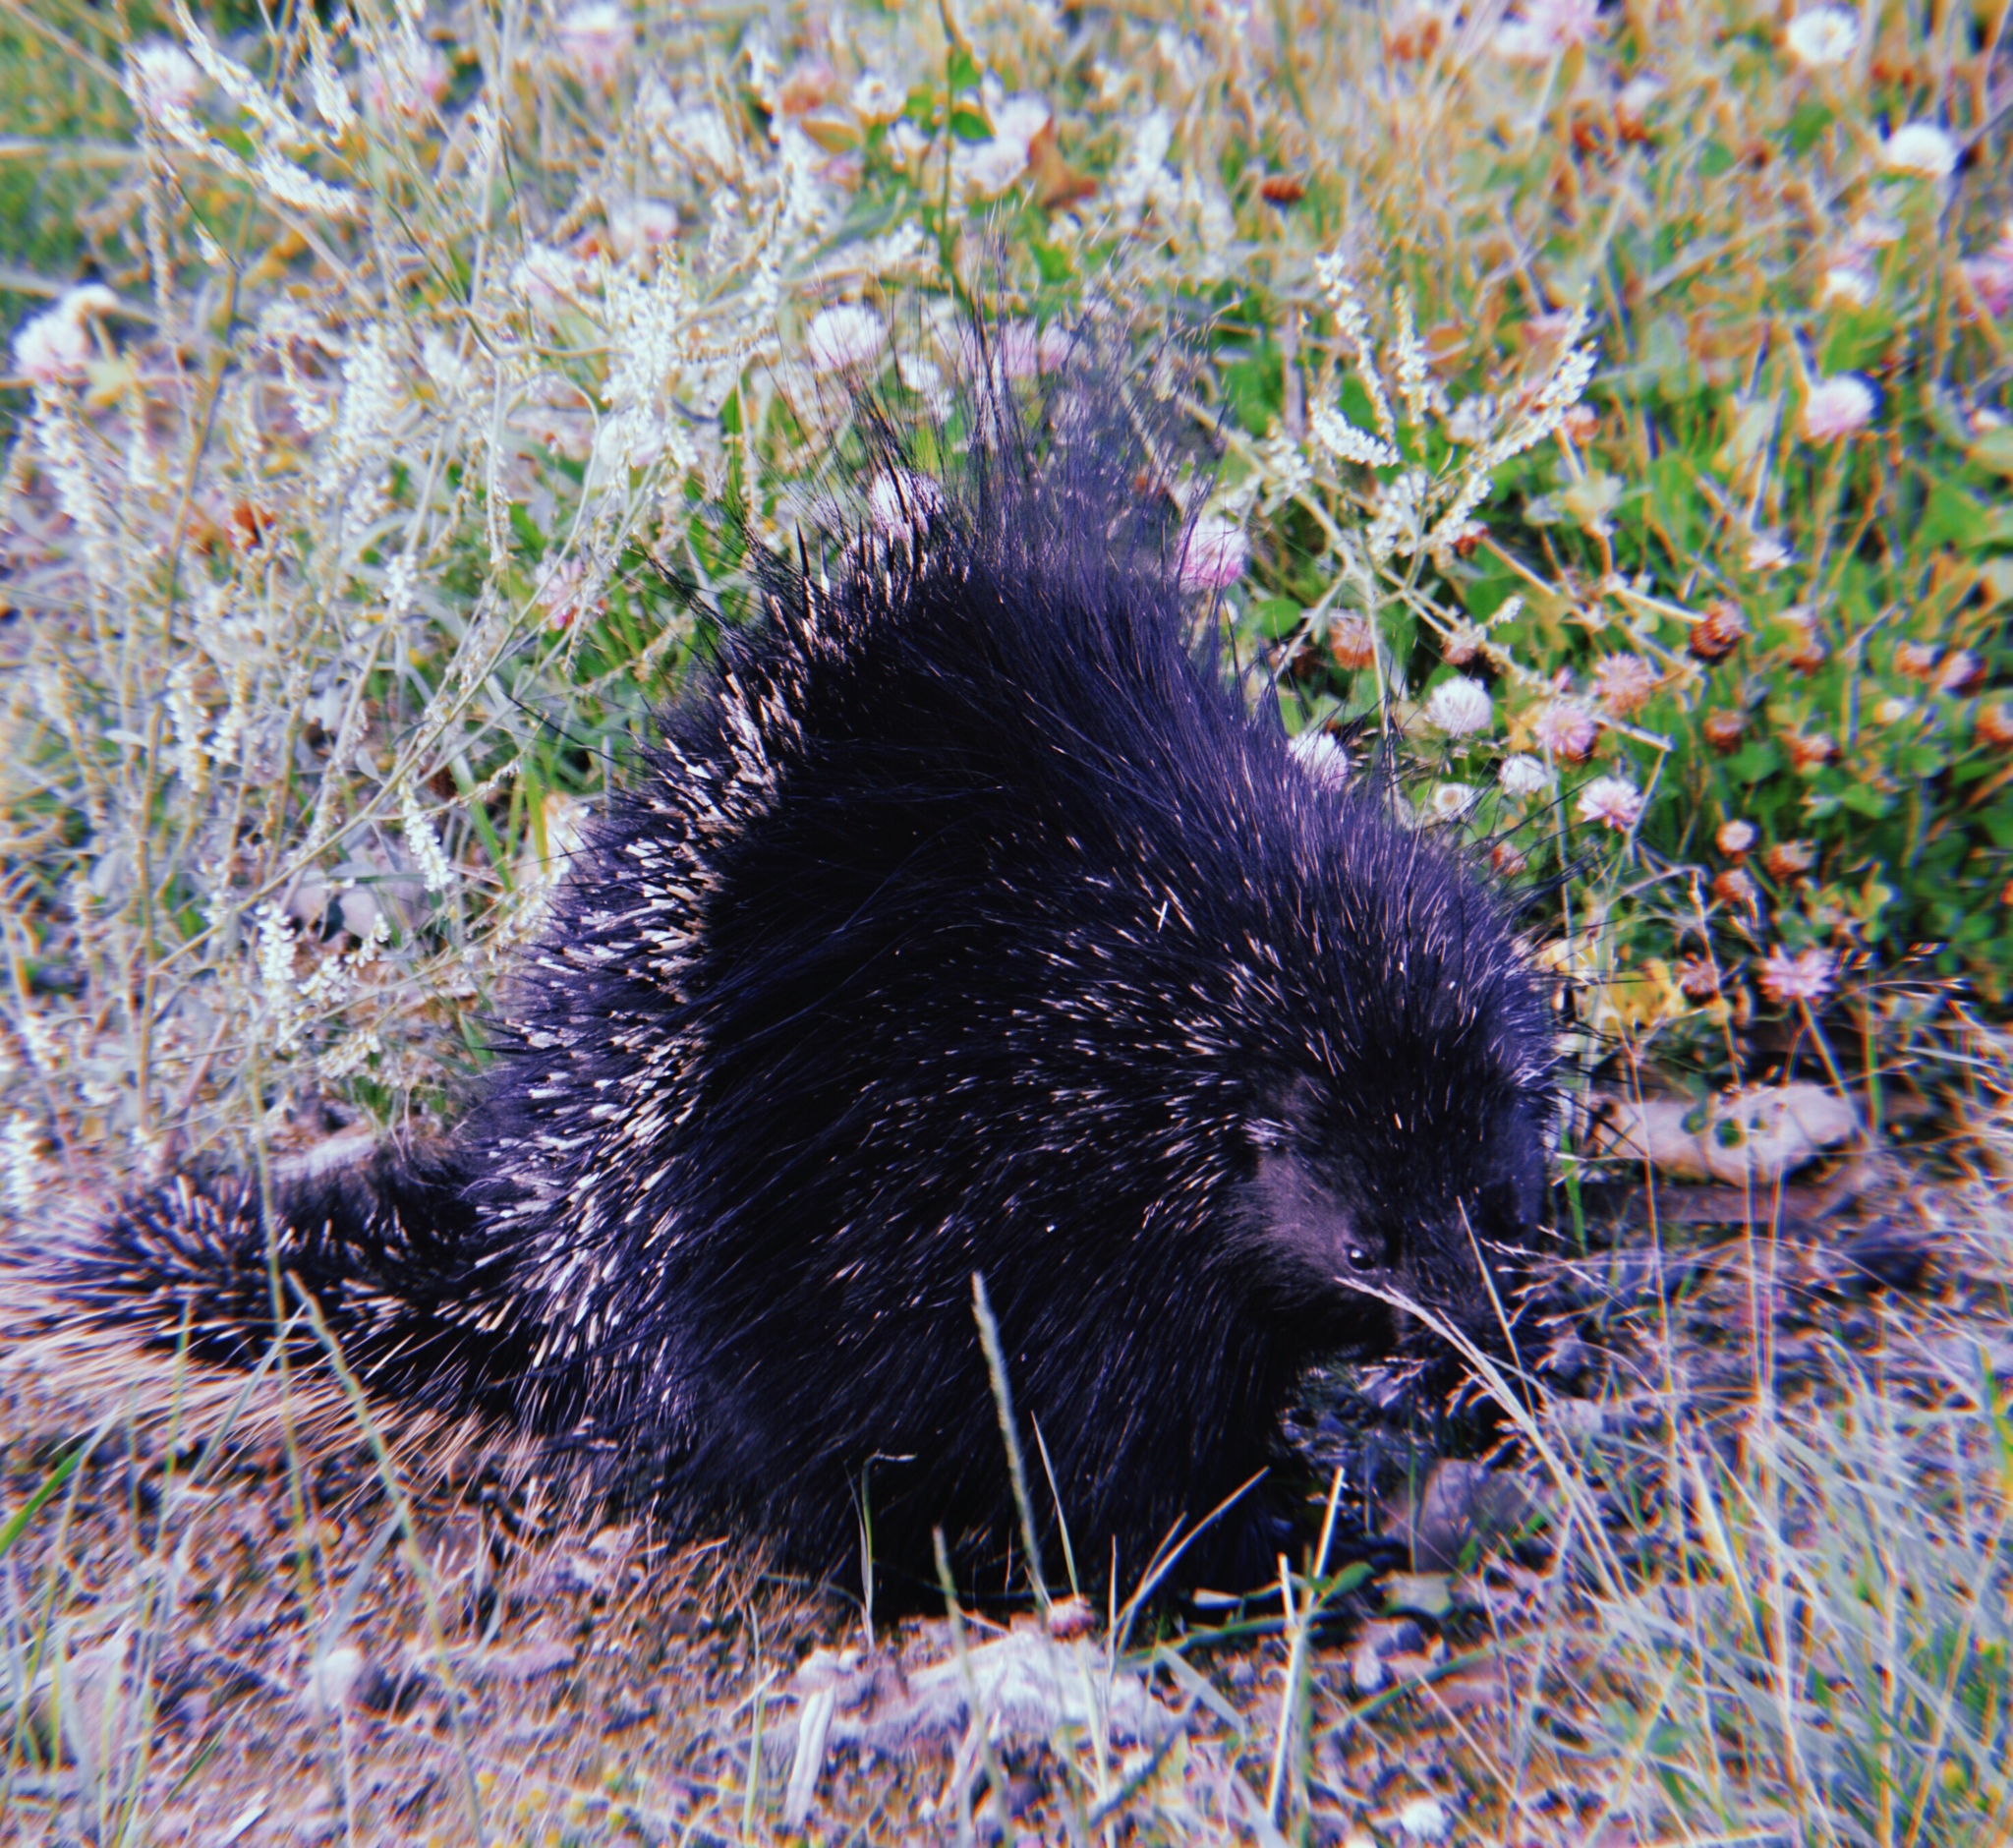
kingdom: Animalia
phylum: Chordata
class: Mammalia
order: Rodentia
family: Erethizontidae
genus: Erethizon
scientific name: Erethizon dorsatus
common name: North american porcupine
